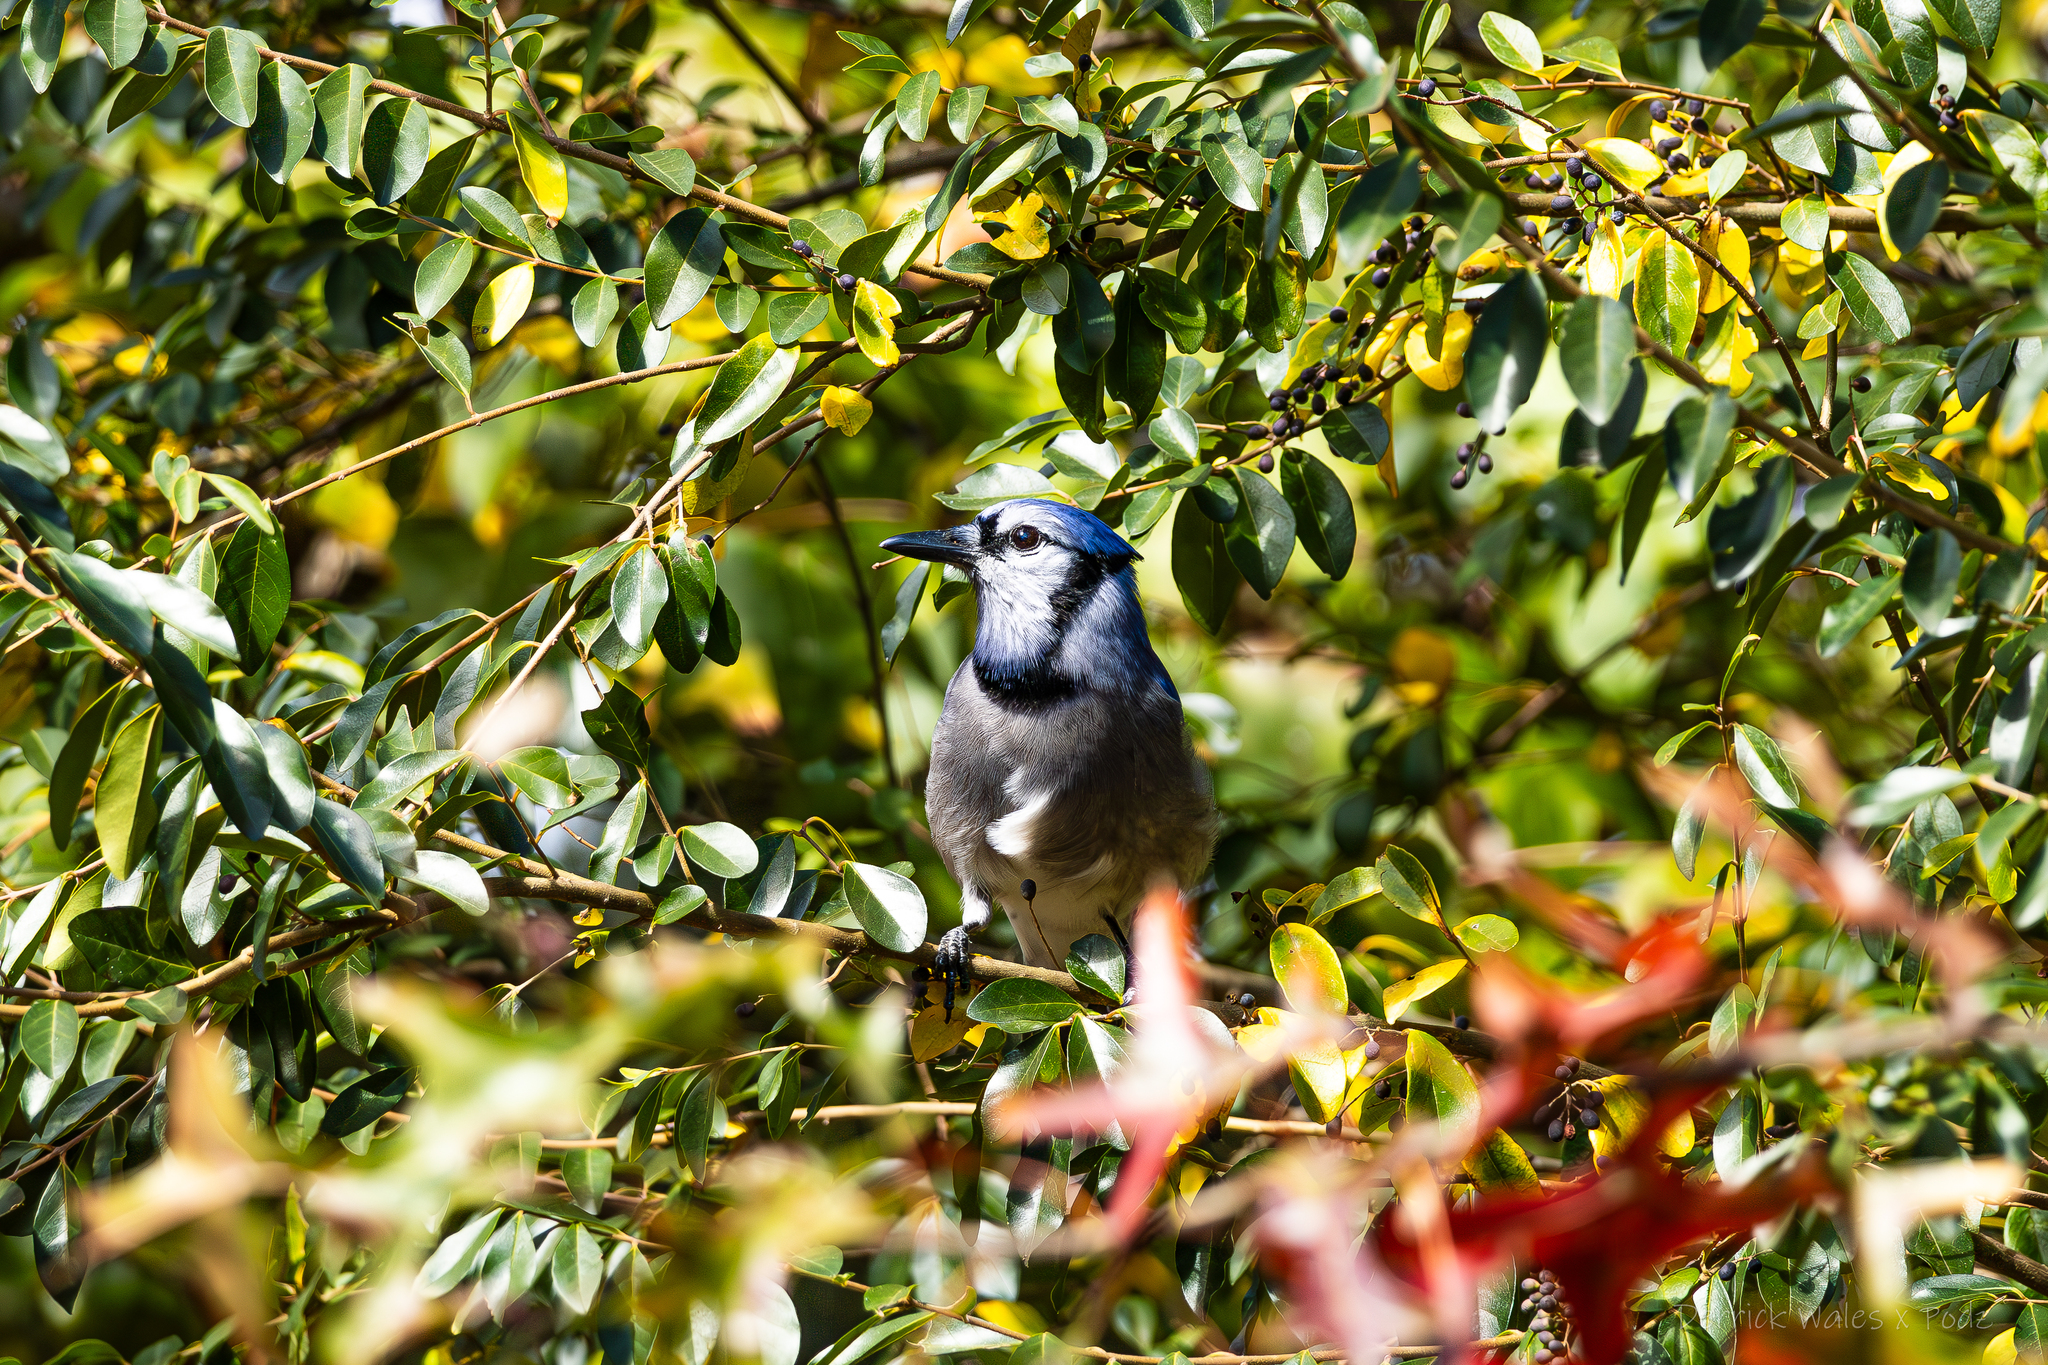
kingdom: Animalia
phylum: Chordata
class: Aves
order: Passeriformes
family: Corvidae
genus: Cyanocitta
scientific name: Cyanocitta cristata
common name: Blue jay
